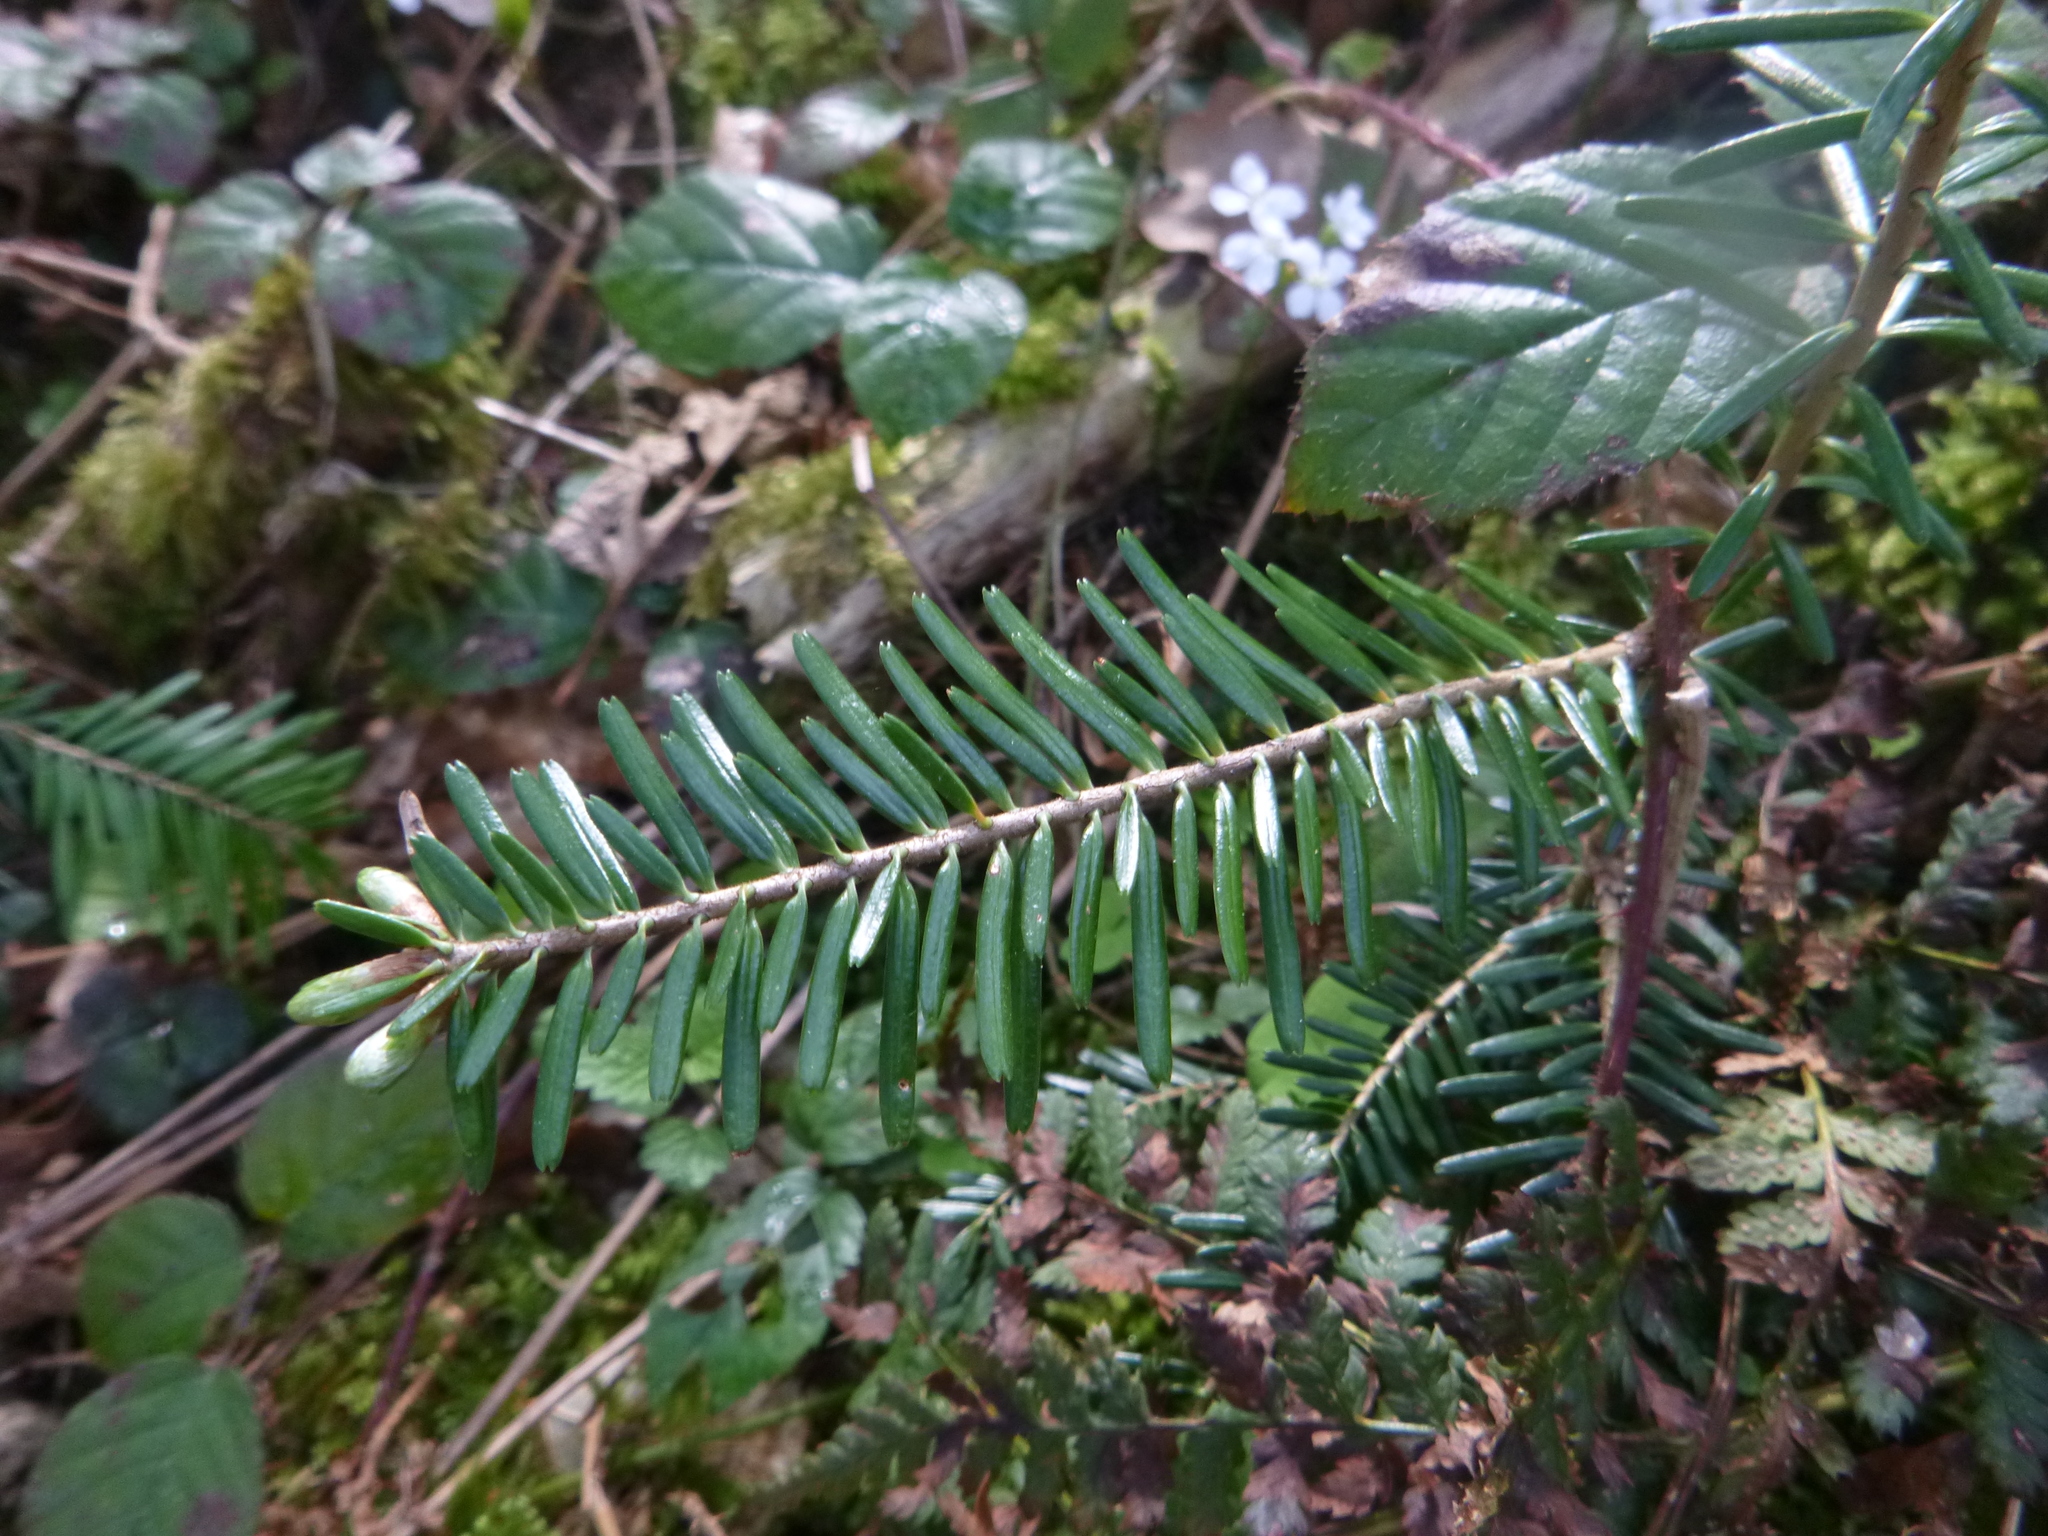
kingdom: Plantae
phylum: Tracheophyta
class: Pinopsida
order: Pinales
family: Pinaceae
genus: Abies
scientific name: Abies alba
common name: Silver fir
